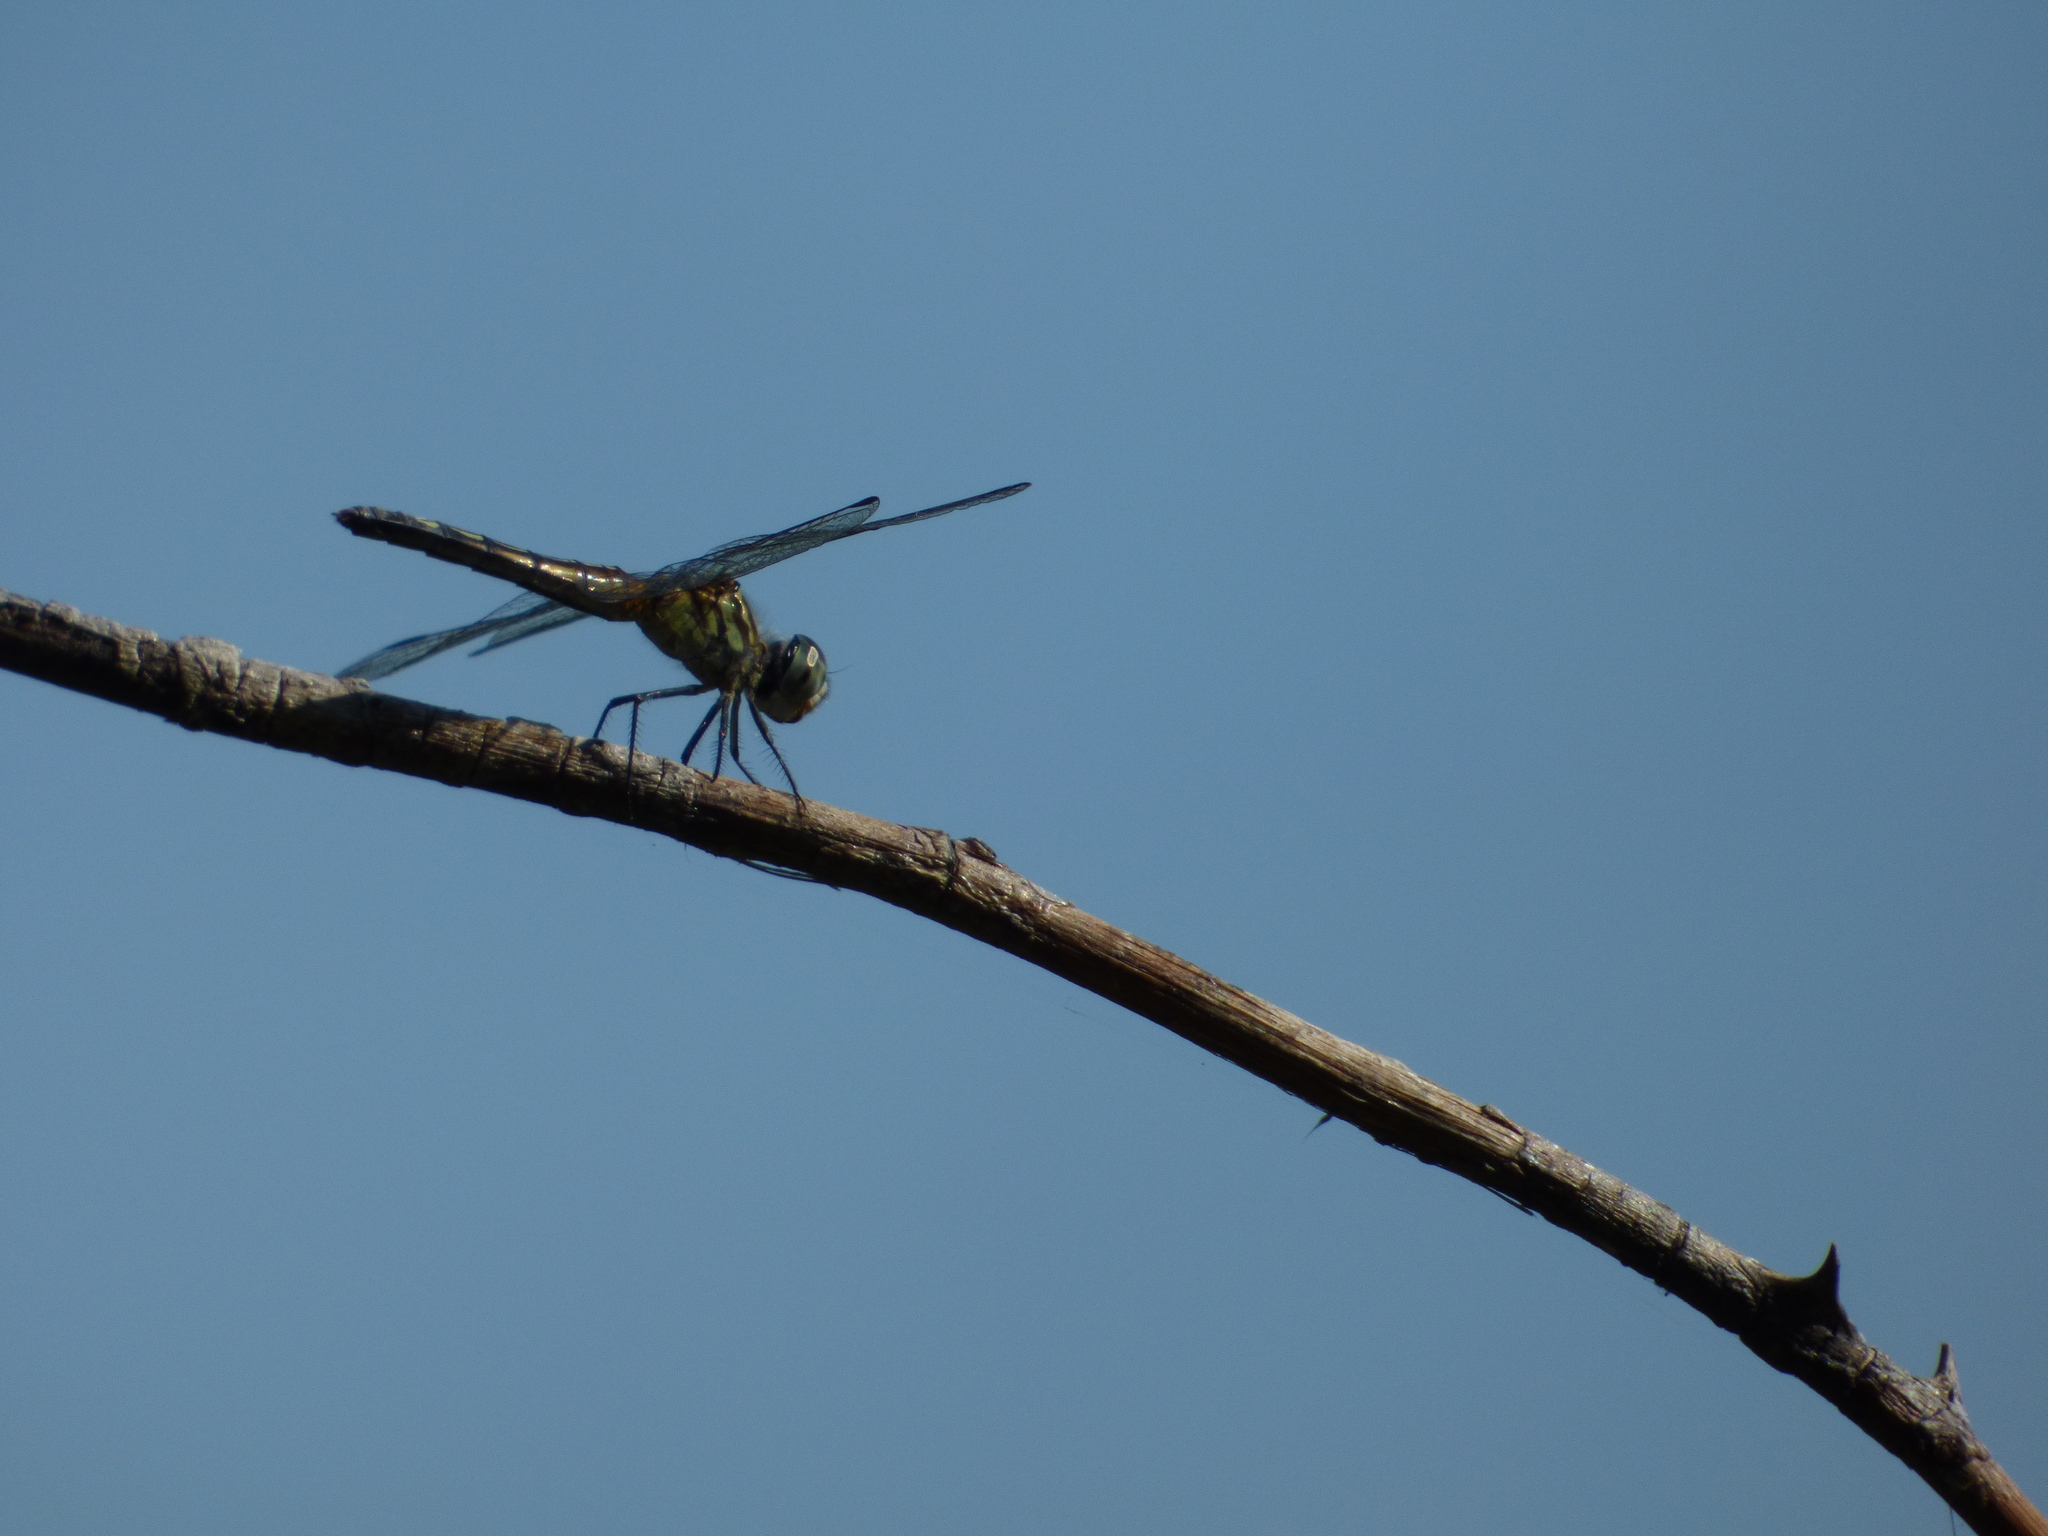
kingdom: Animalia
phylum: Arthropoda
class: Insecta
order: Odonata
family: Libellulidae
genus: Pachydiplax
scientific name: Pachydiplax longipennis
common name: Blue dasher
